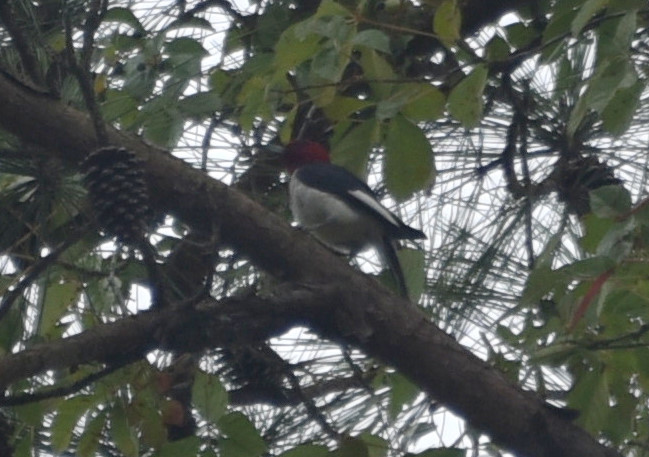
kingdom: Animalia
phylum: Chordata
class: Aves
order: Piciformes
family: Picidae
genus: Melanerpes
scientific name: Melanerpes erythrocephalus
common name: Red-headed woodpecker
